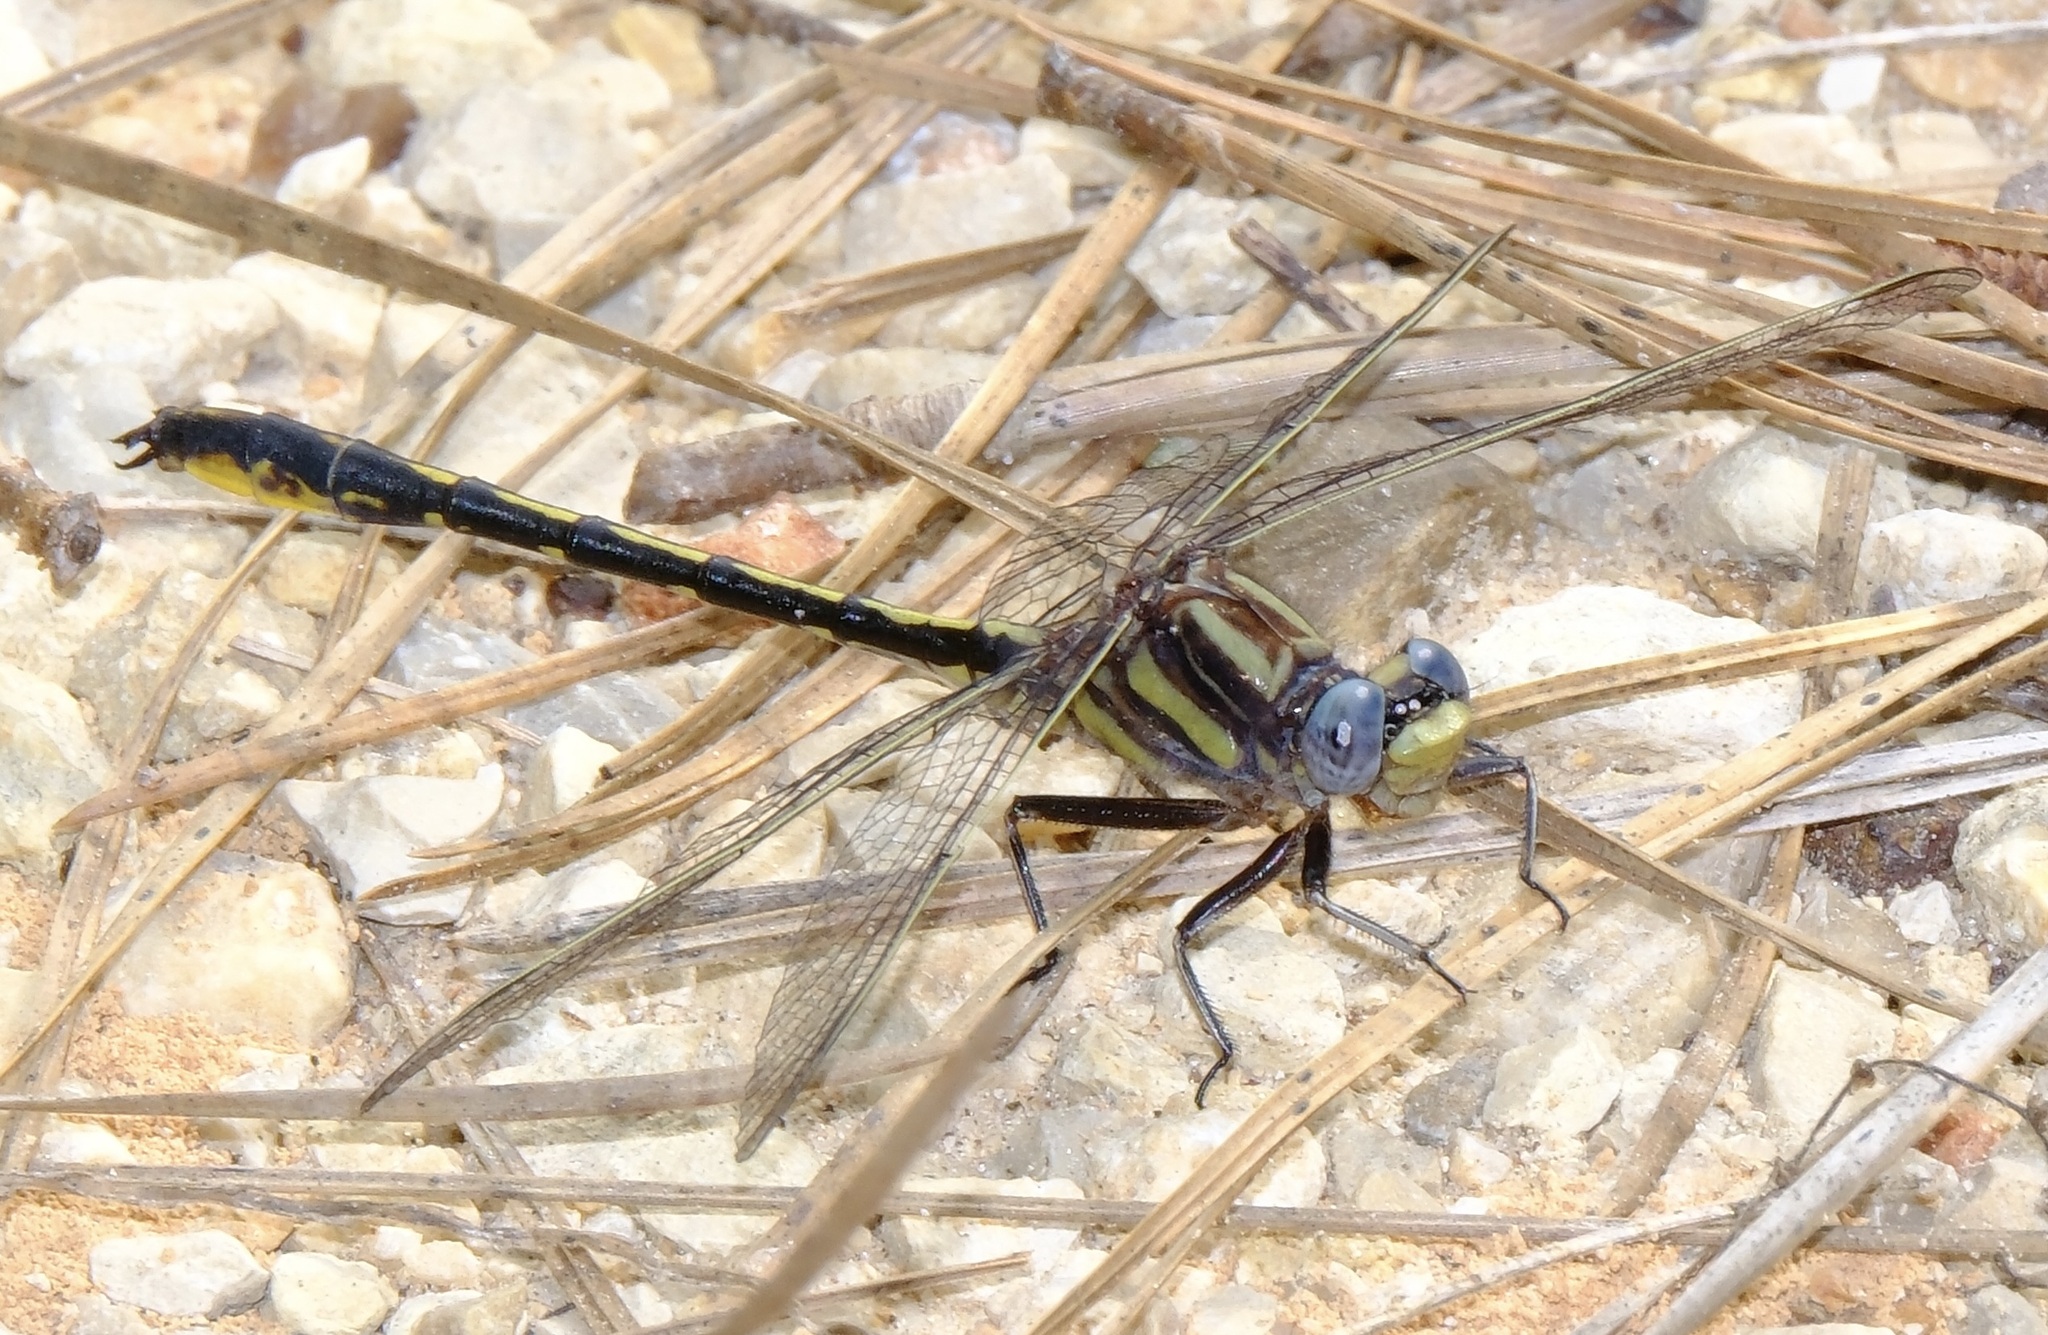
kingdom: Animalia
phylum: Arthropoda
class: Insecta
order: Odonata
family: Gomphidae
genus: Phanogomphus
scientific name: Phanogomphus oklahomensis
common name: Oklahoma clubtail
